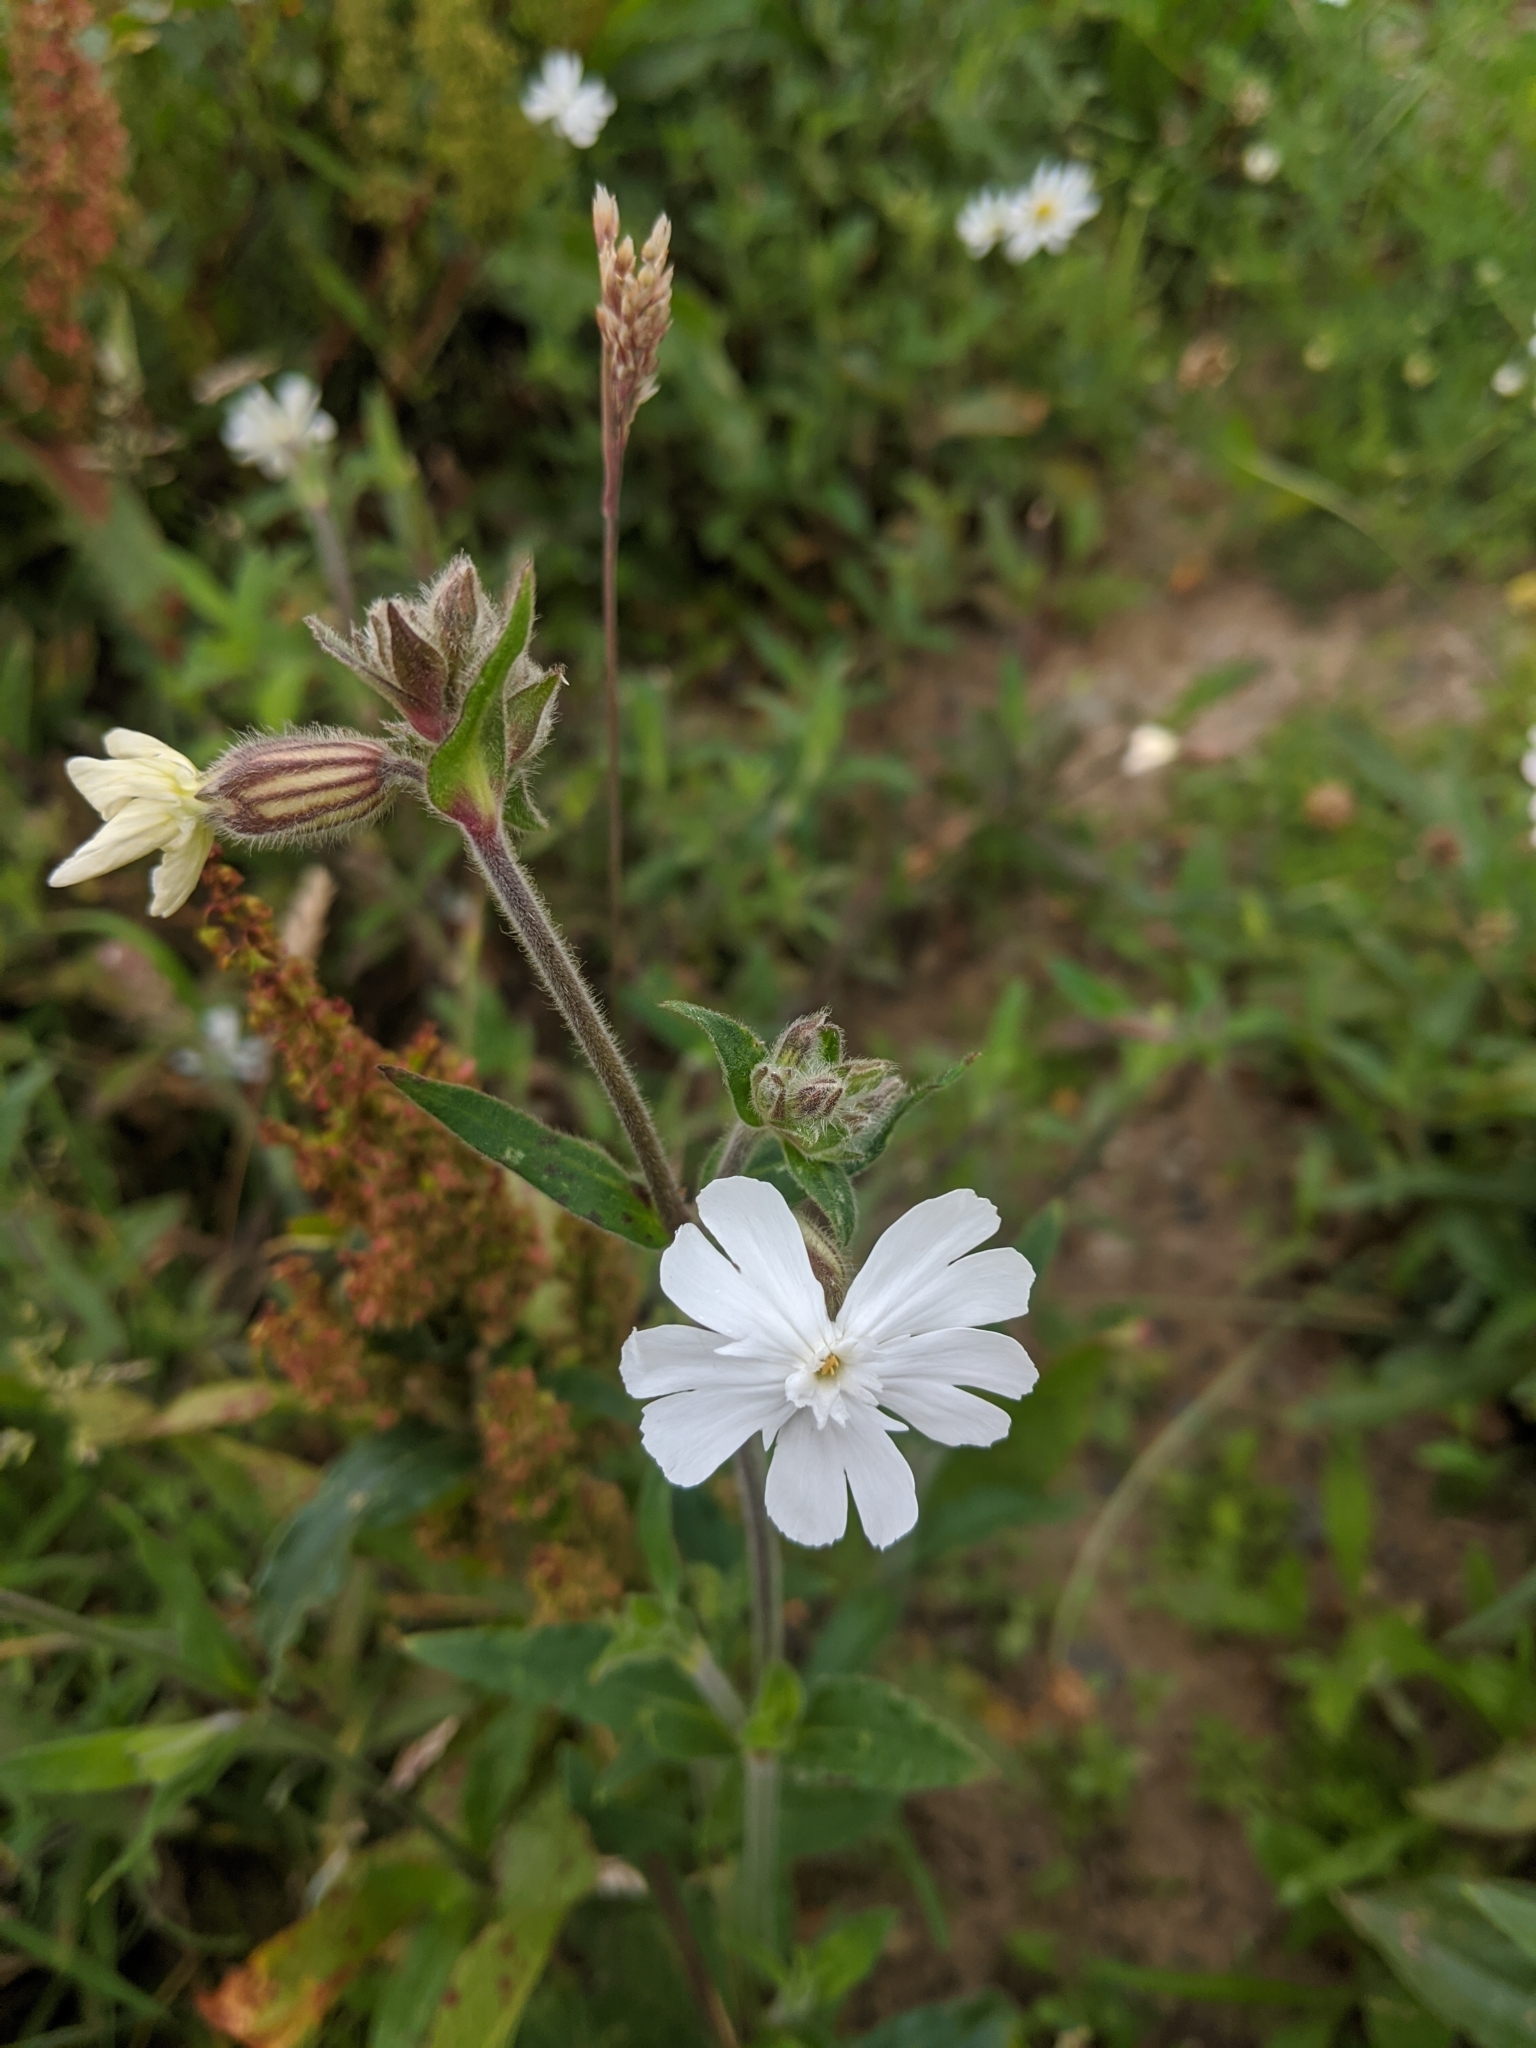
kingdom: Plantae
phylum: Tracheophyta
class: Magnoliopsida
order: Caryophyllales
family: Caryophyllaceae
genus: Silene
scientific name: Silene latifolia
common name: White campion
